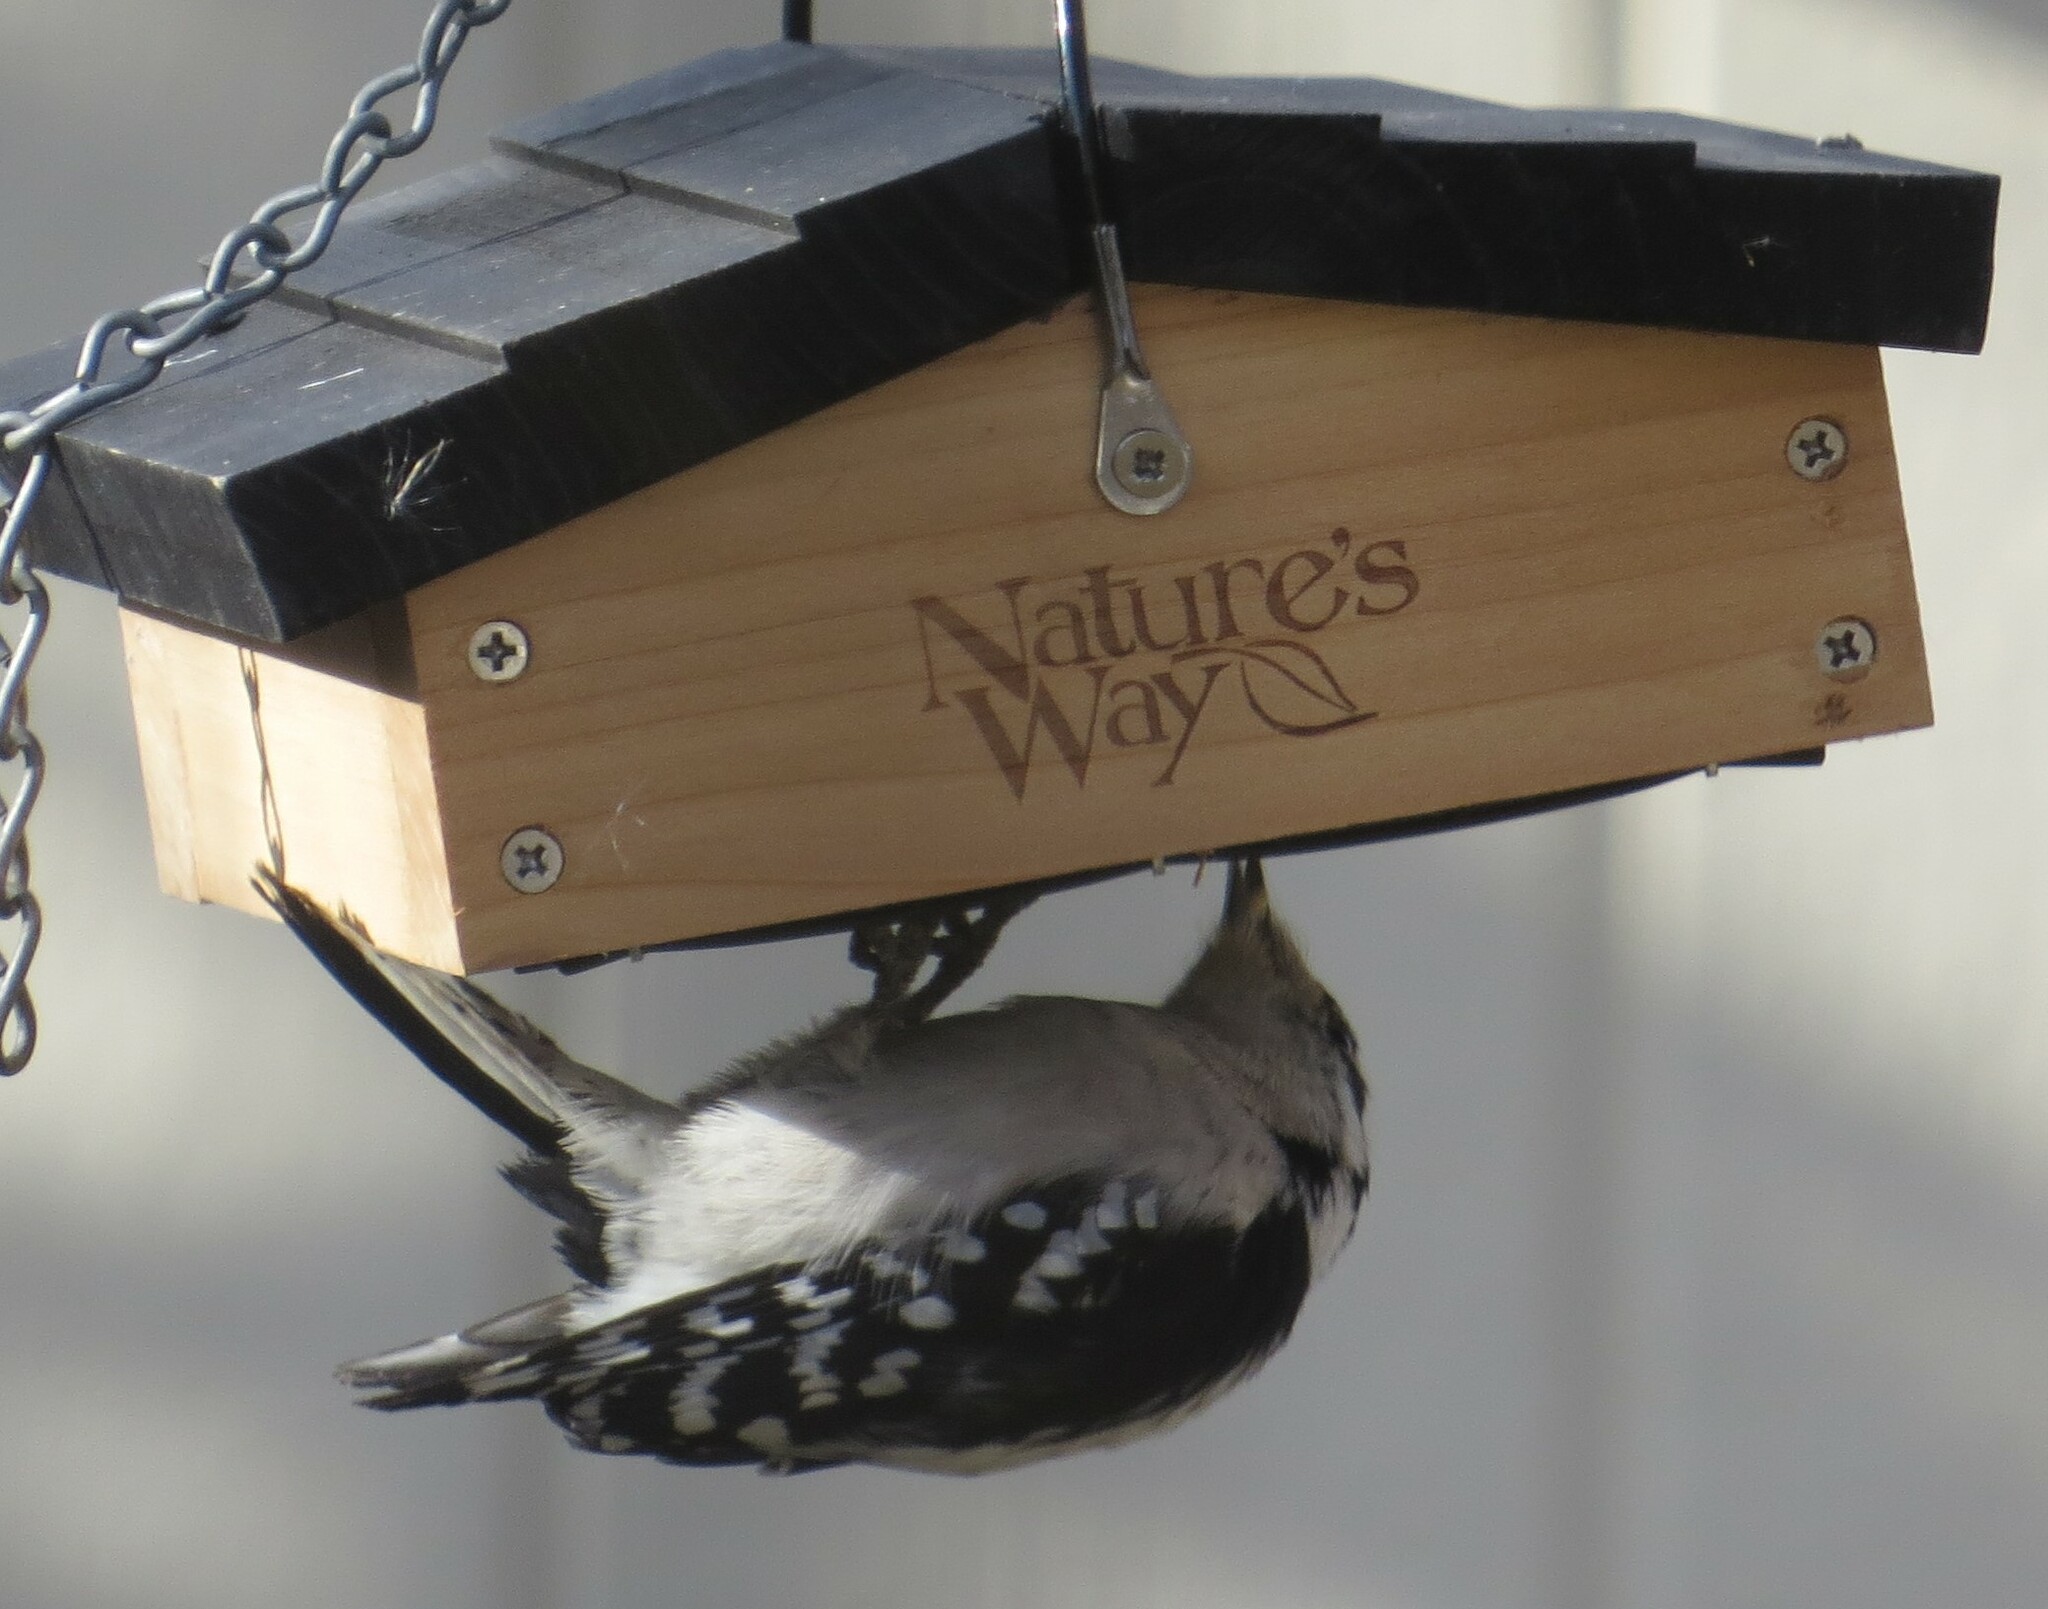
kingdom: Animalia
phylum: Chordata
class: Aves
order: Piciformes
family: Picidae
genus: Dryobates
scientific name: Dryobates pubescens
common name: Downy woodpecker
